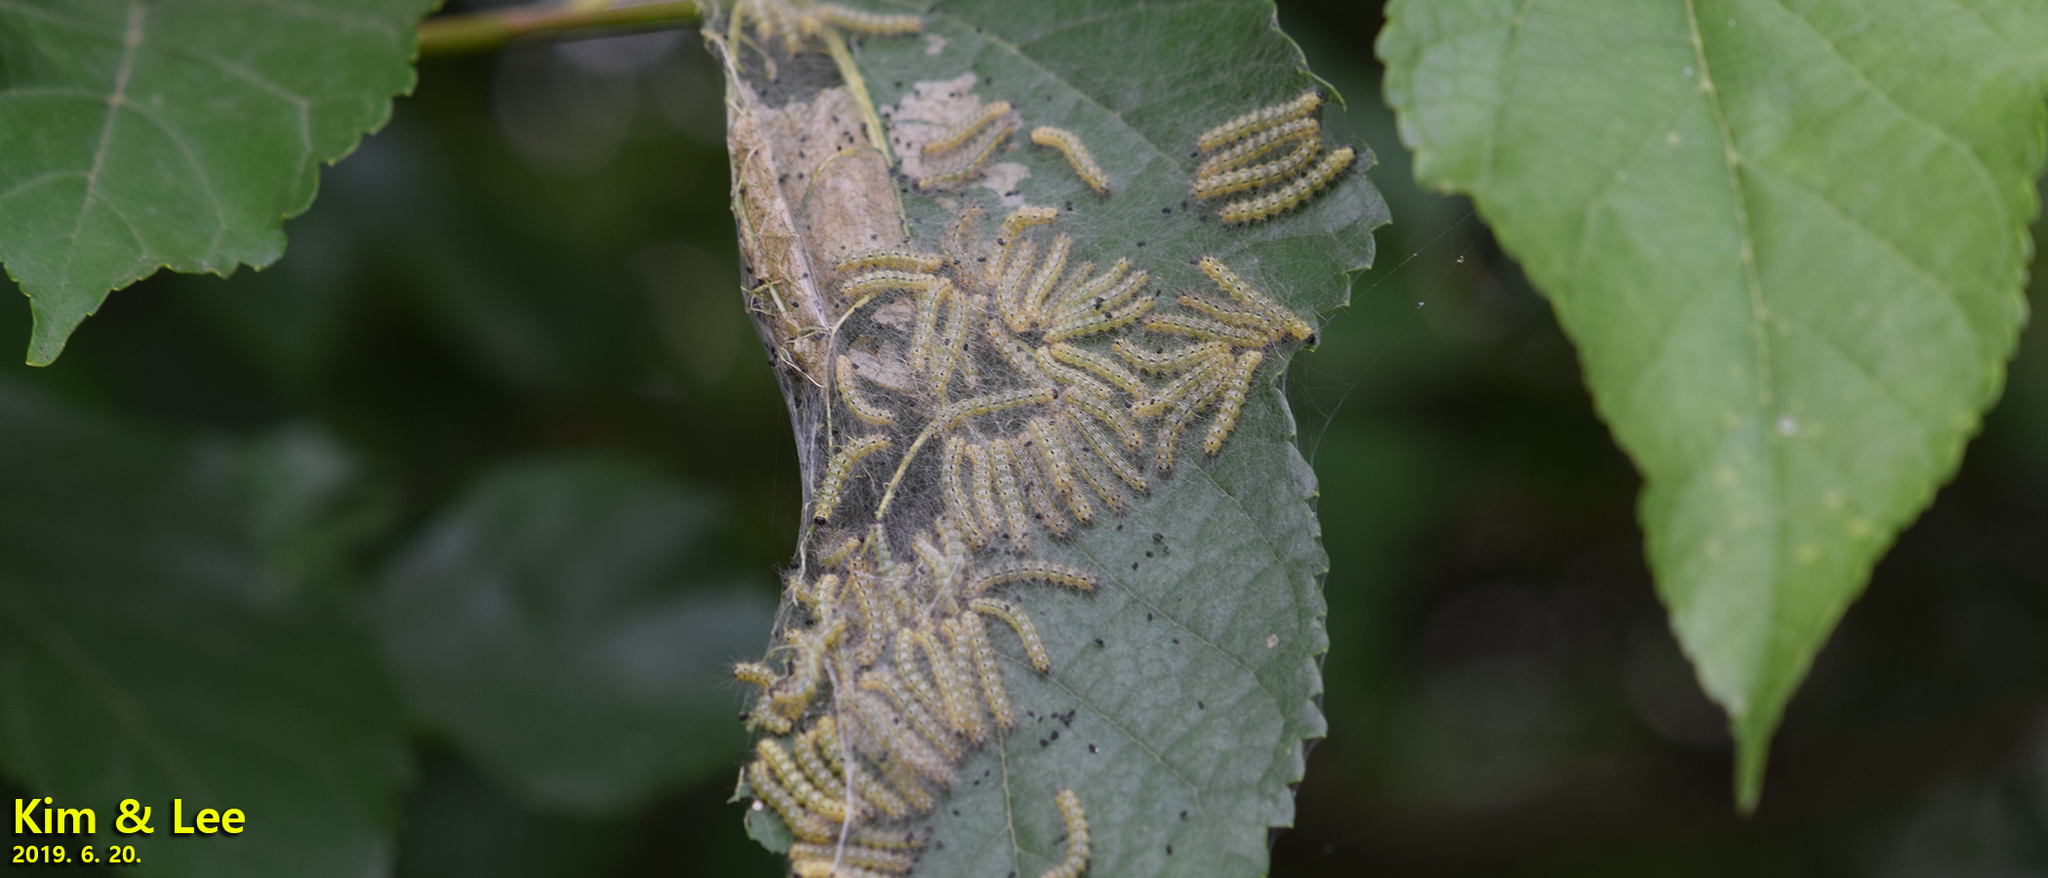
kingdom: Animalia
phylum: Arthropoda
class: Insecta
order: Lepidoptera
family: Erebidae
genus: Hyphantria
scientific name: Hyphantria cunea
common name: American white moth
